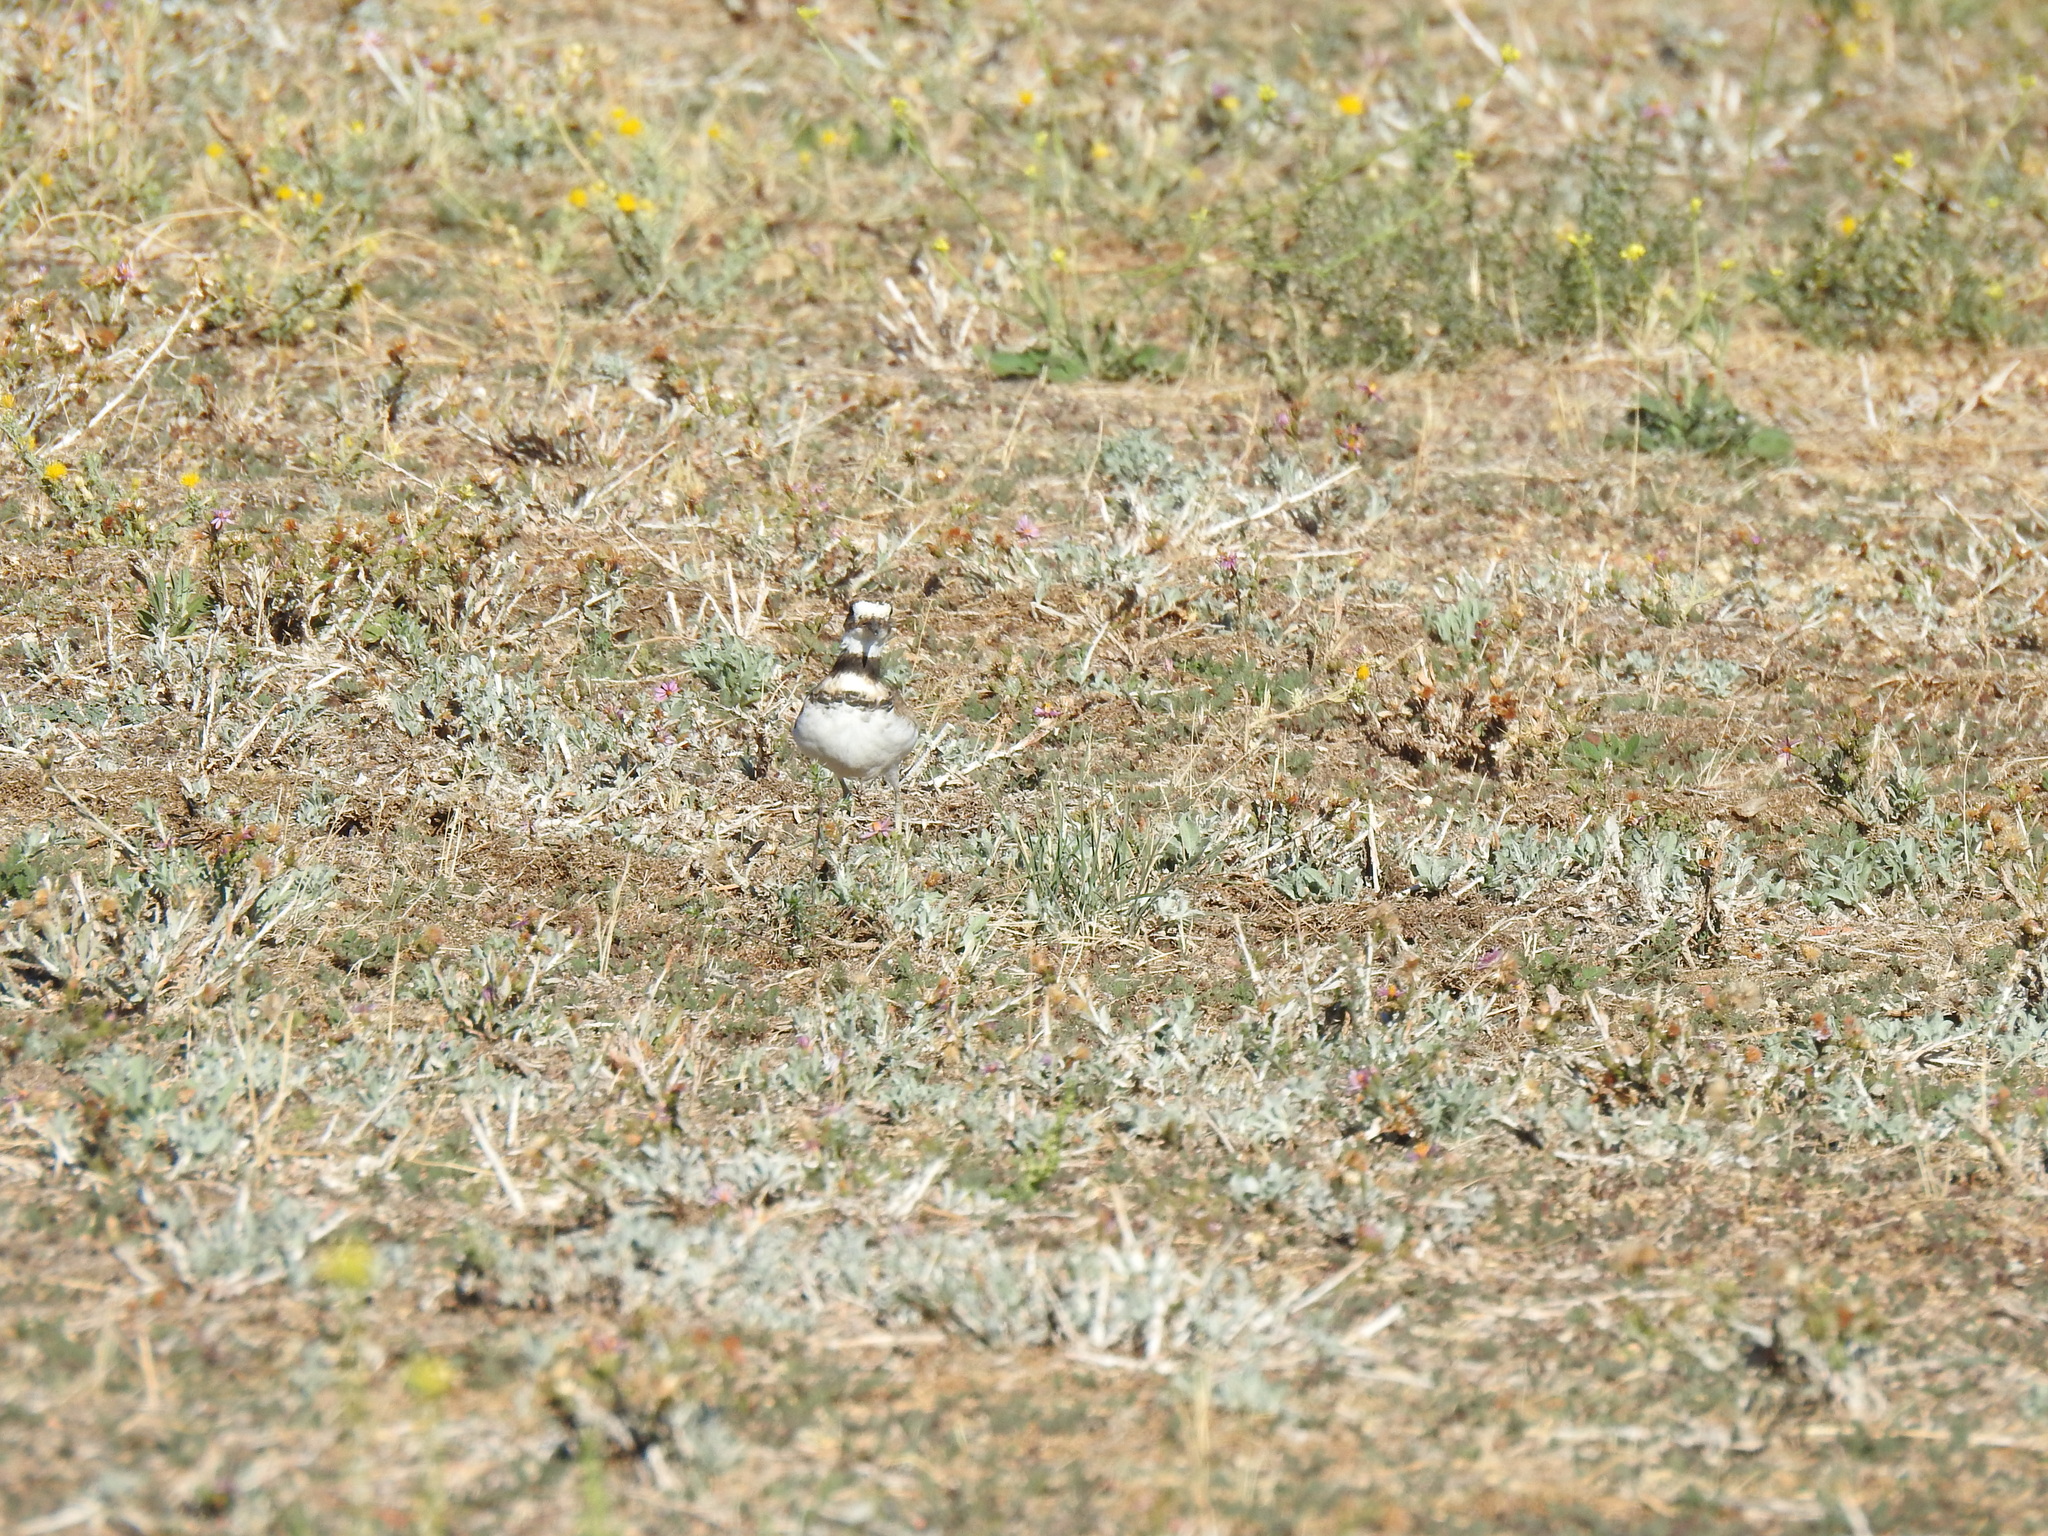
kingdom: Animalia
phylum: Chordata
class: Aves
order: Charadriiformes
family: Charadriidae
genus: Charadrius
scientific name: Charadrius vociferus
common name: Killdeer
